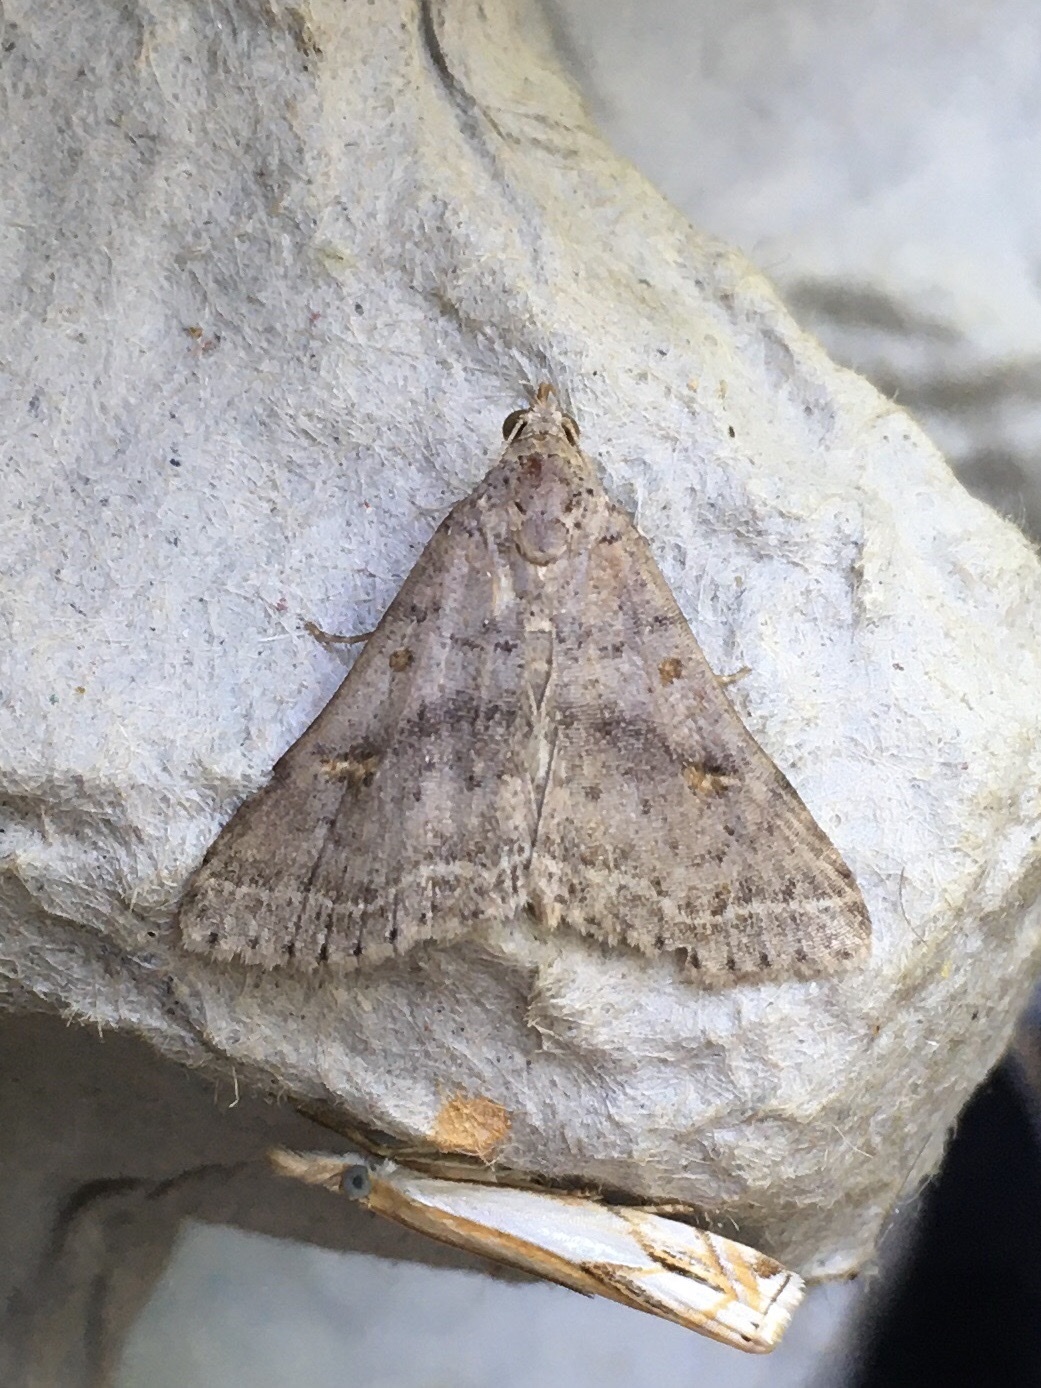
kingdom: Animalia
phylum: Arthropoda
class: Insecta
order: Lepidoptera
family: Erebidae
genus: Bleptina
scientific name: Bleptina caradrinalis
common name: Bent-winged owlet
